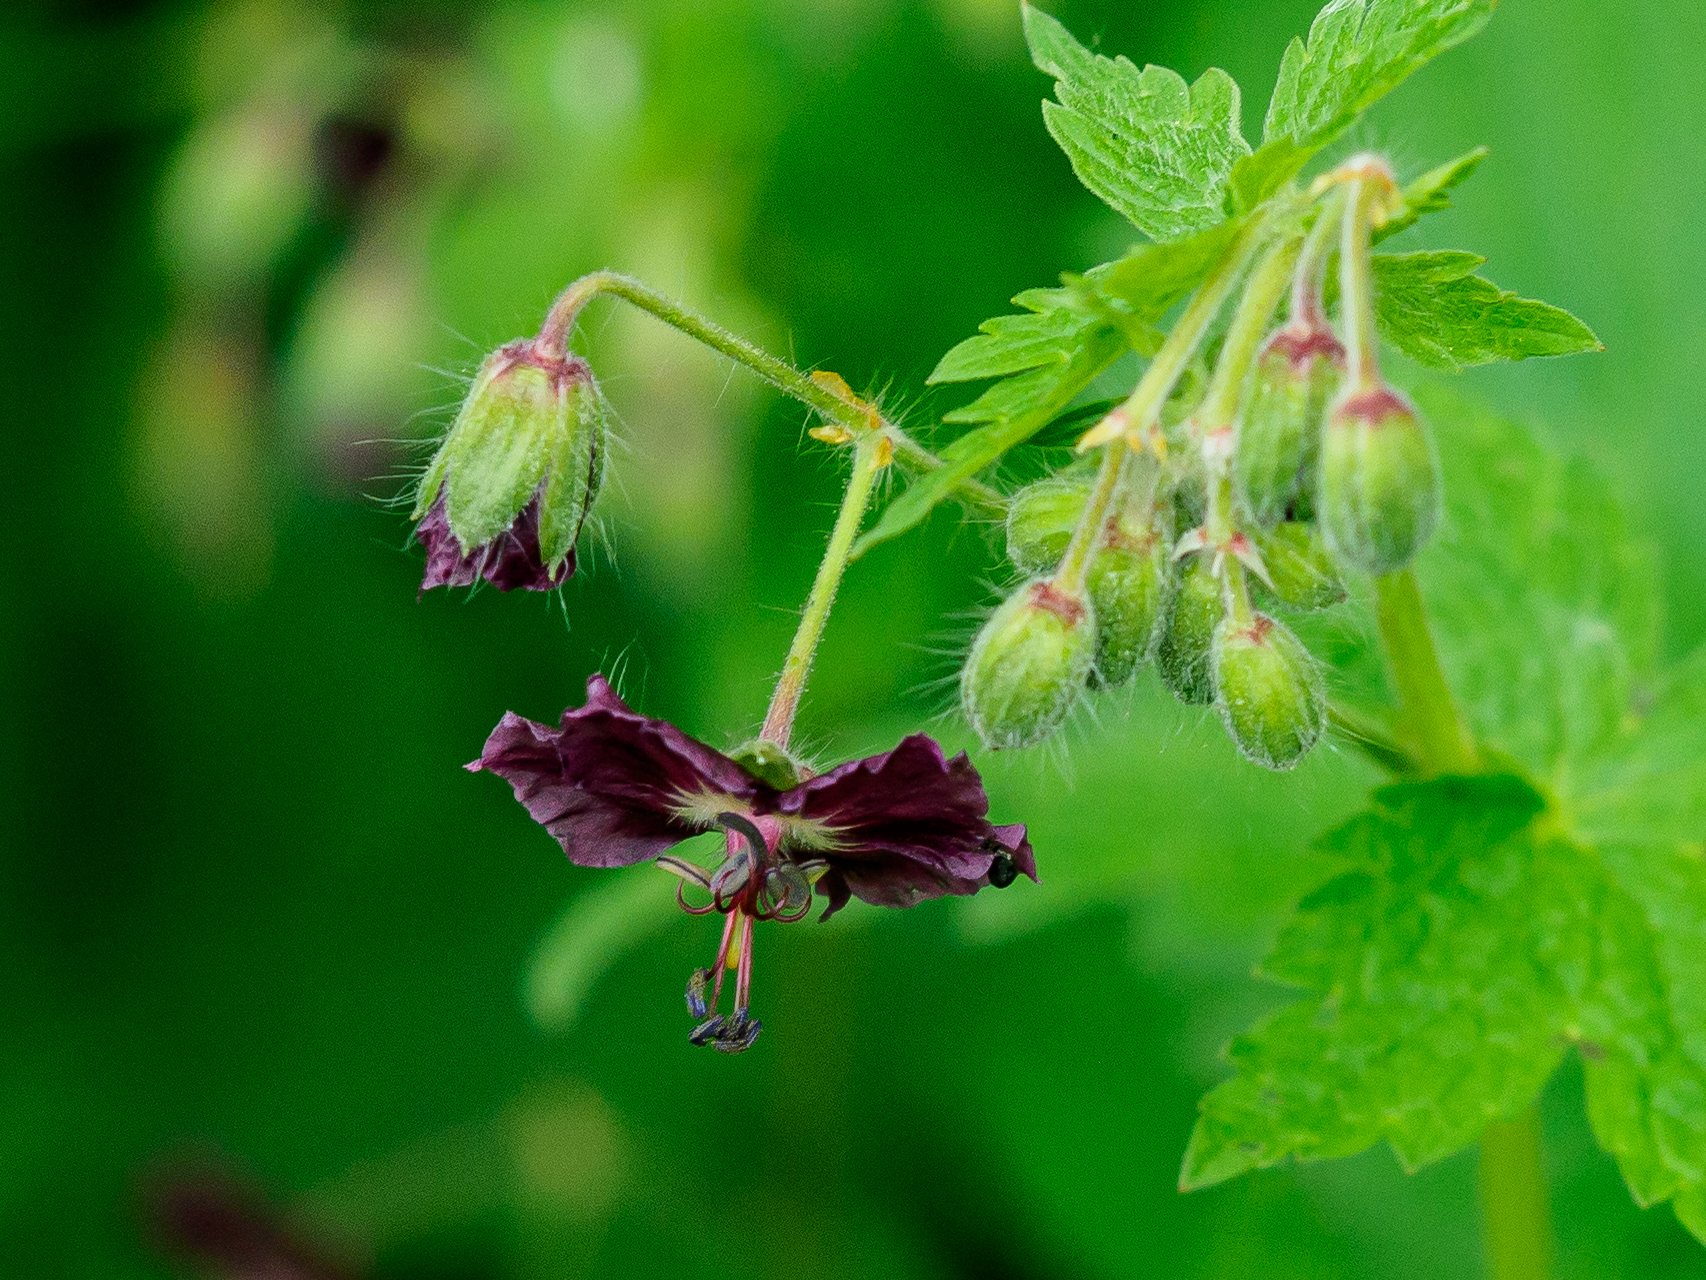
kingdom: Plantae
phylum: Tracheophyta
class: Magnoliopsida
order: Geraniales
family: Geraniaceae
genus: Geranium
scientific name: Geranium phaeum
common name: Dusky crane's-bill
